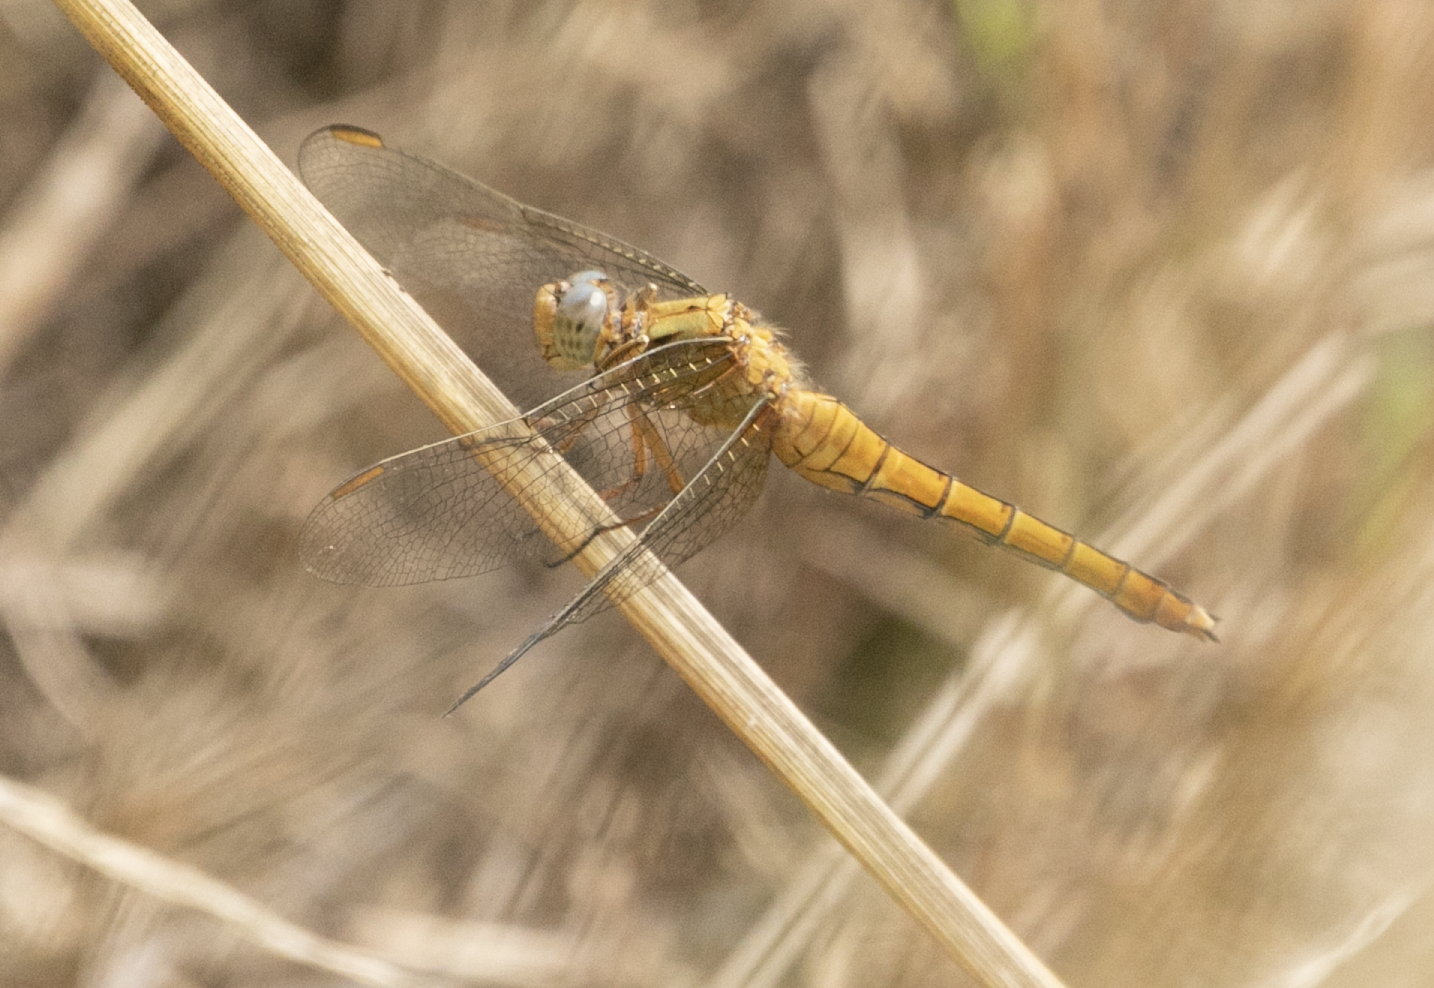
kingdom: Animalia
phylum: Arthropoda
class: Insecta
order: Odonata
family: Libellulidae
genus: Orthetrum
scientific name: Orthetrum coerulescens
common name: Keeled skimmer
